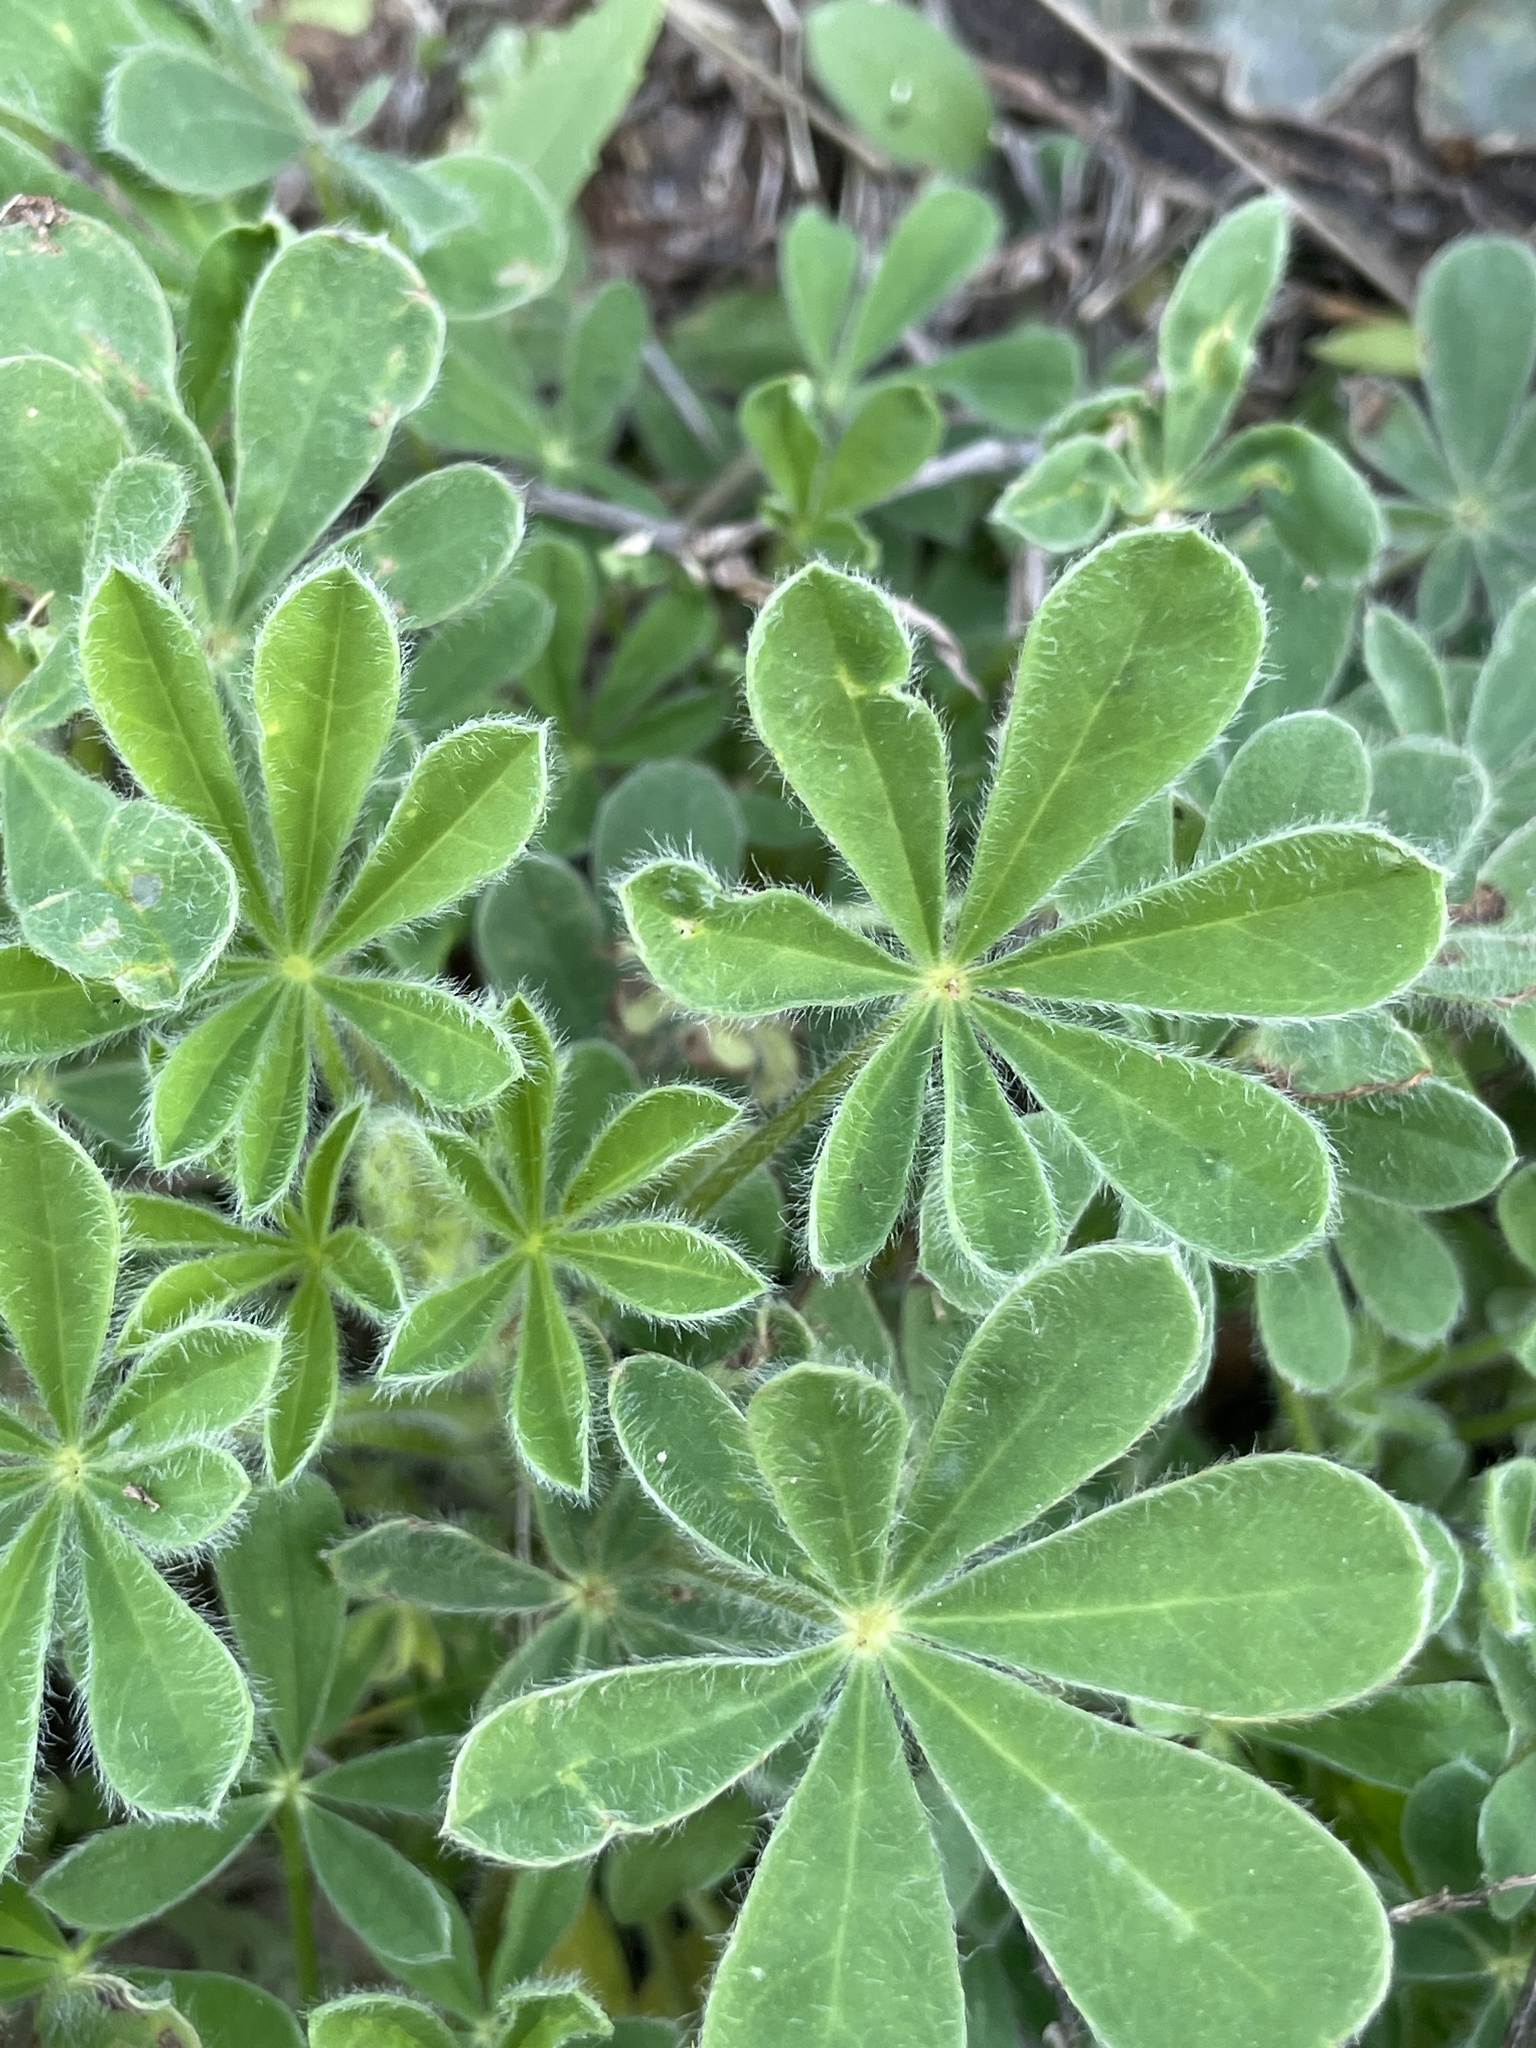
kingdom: Plantae
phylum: Tracheophyta
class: Magnoliopsida
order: Fabales
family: Fabaceae
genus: Lupinus
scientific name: Lupinus subcarnosus
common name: Texas bluebonnet
